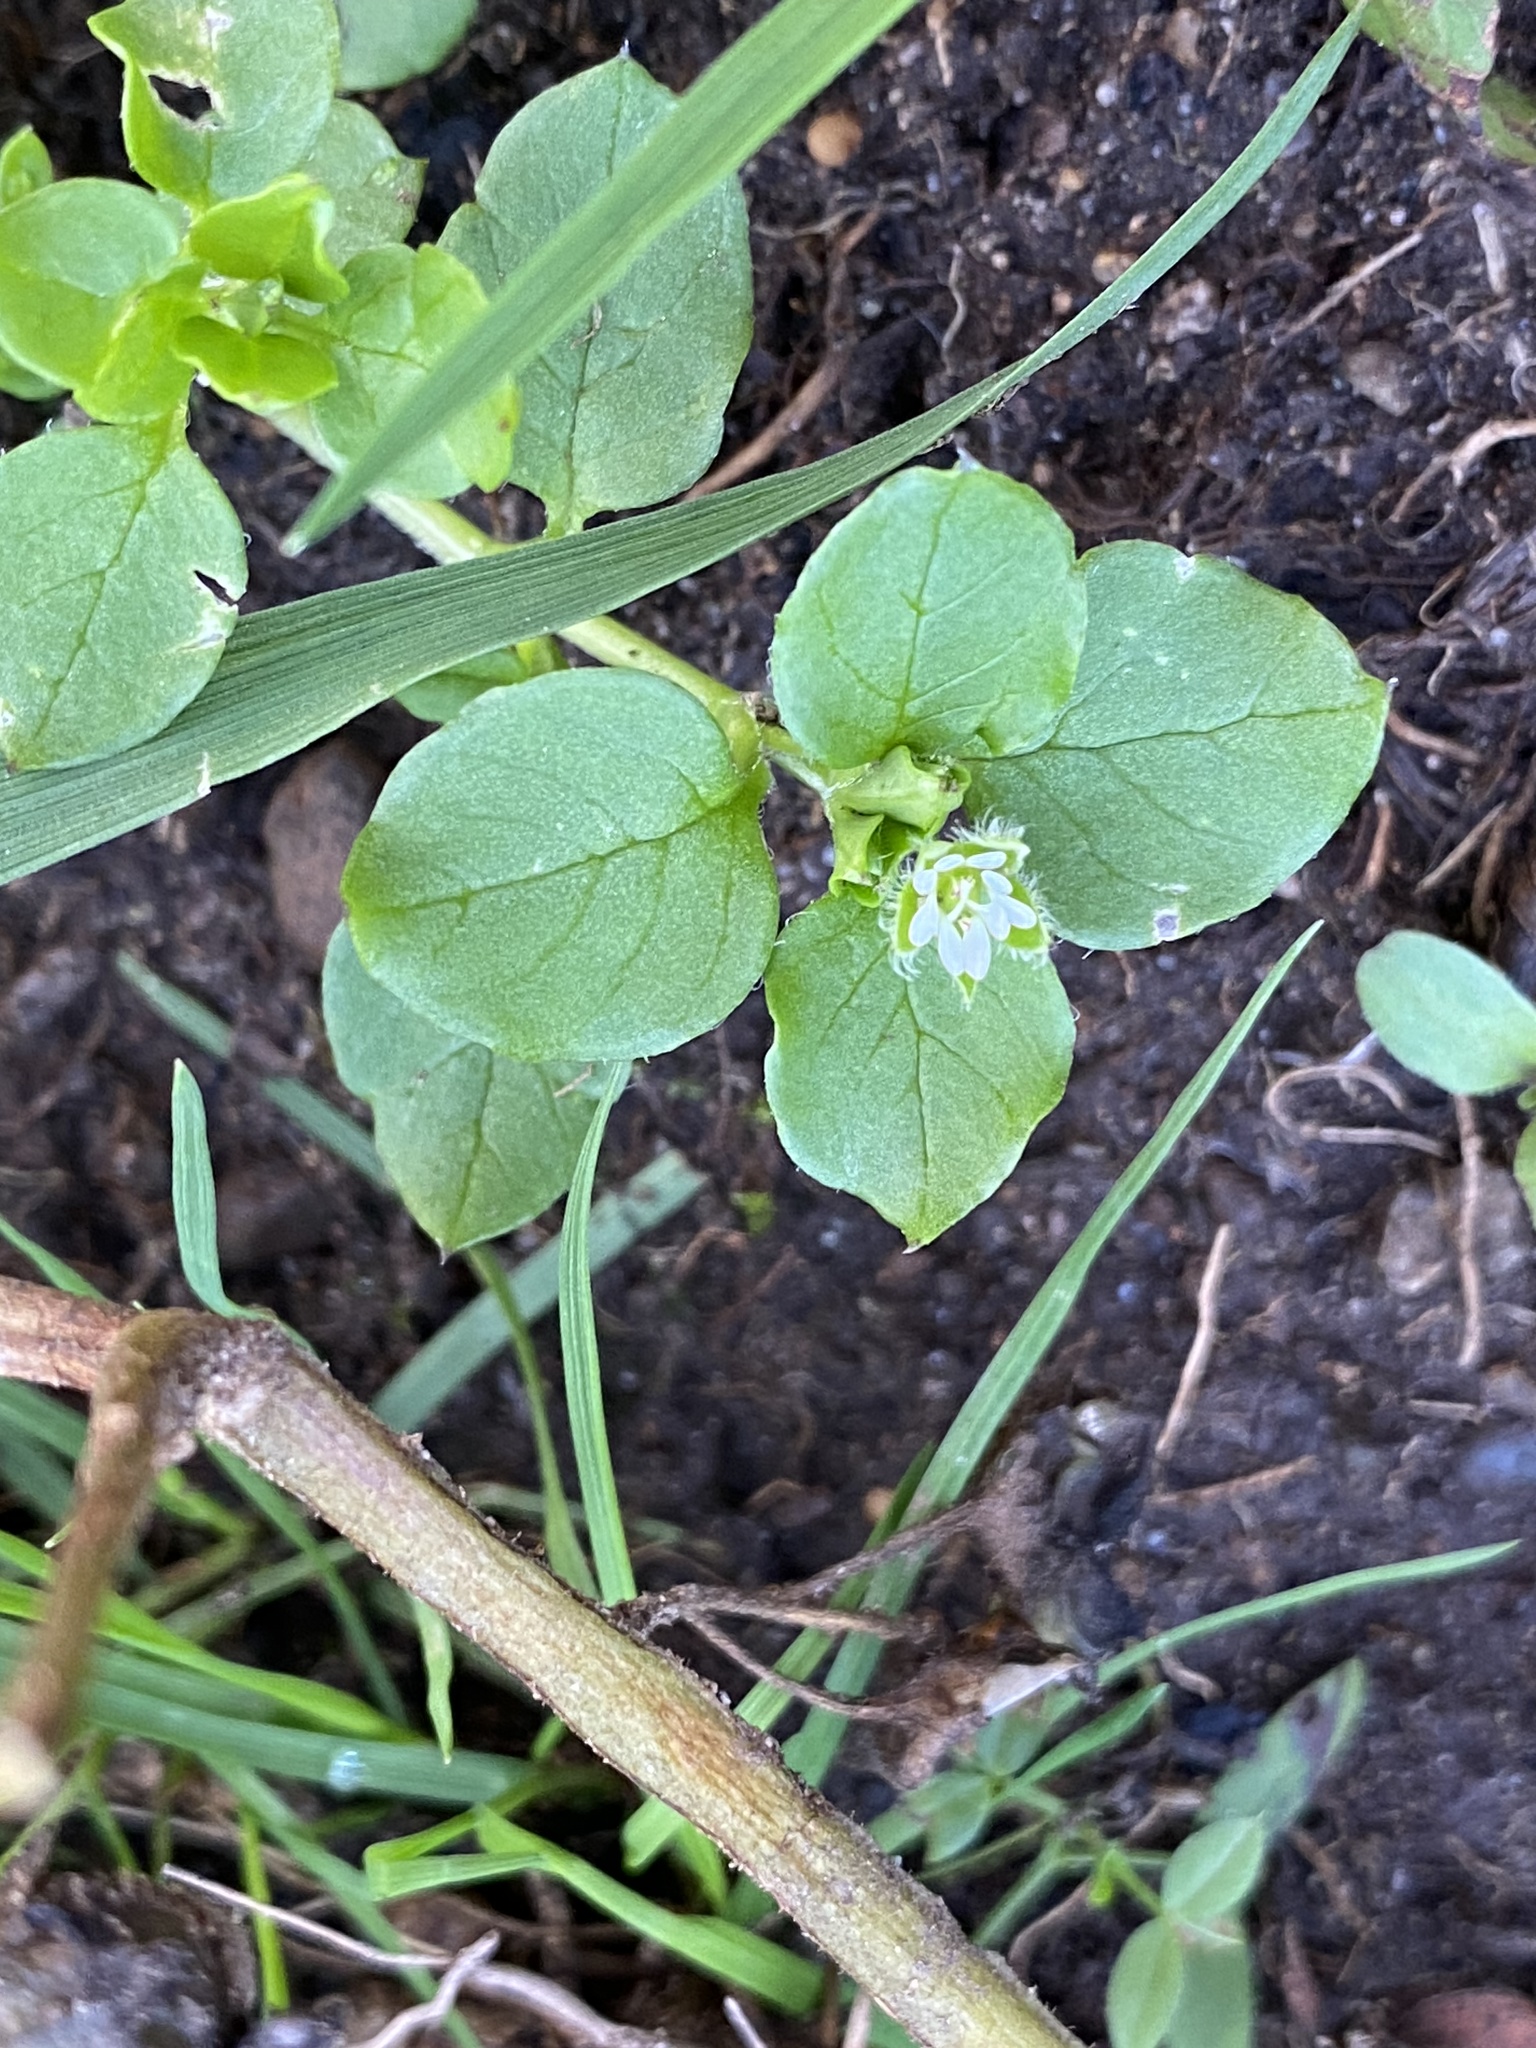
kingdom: Plantae
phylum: Tracheophyta
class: Magnoliopsida
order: Caryophyllales
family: Caryophyllaceae
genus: Stellaria
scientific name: Stellaria media
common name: Common chickweed
